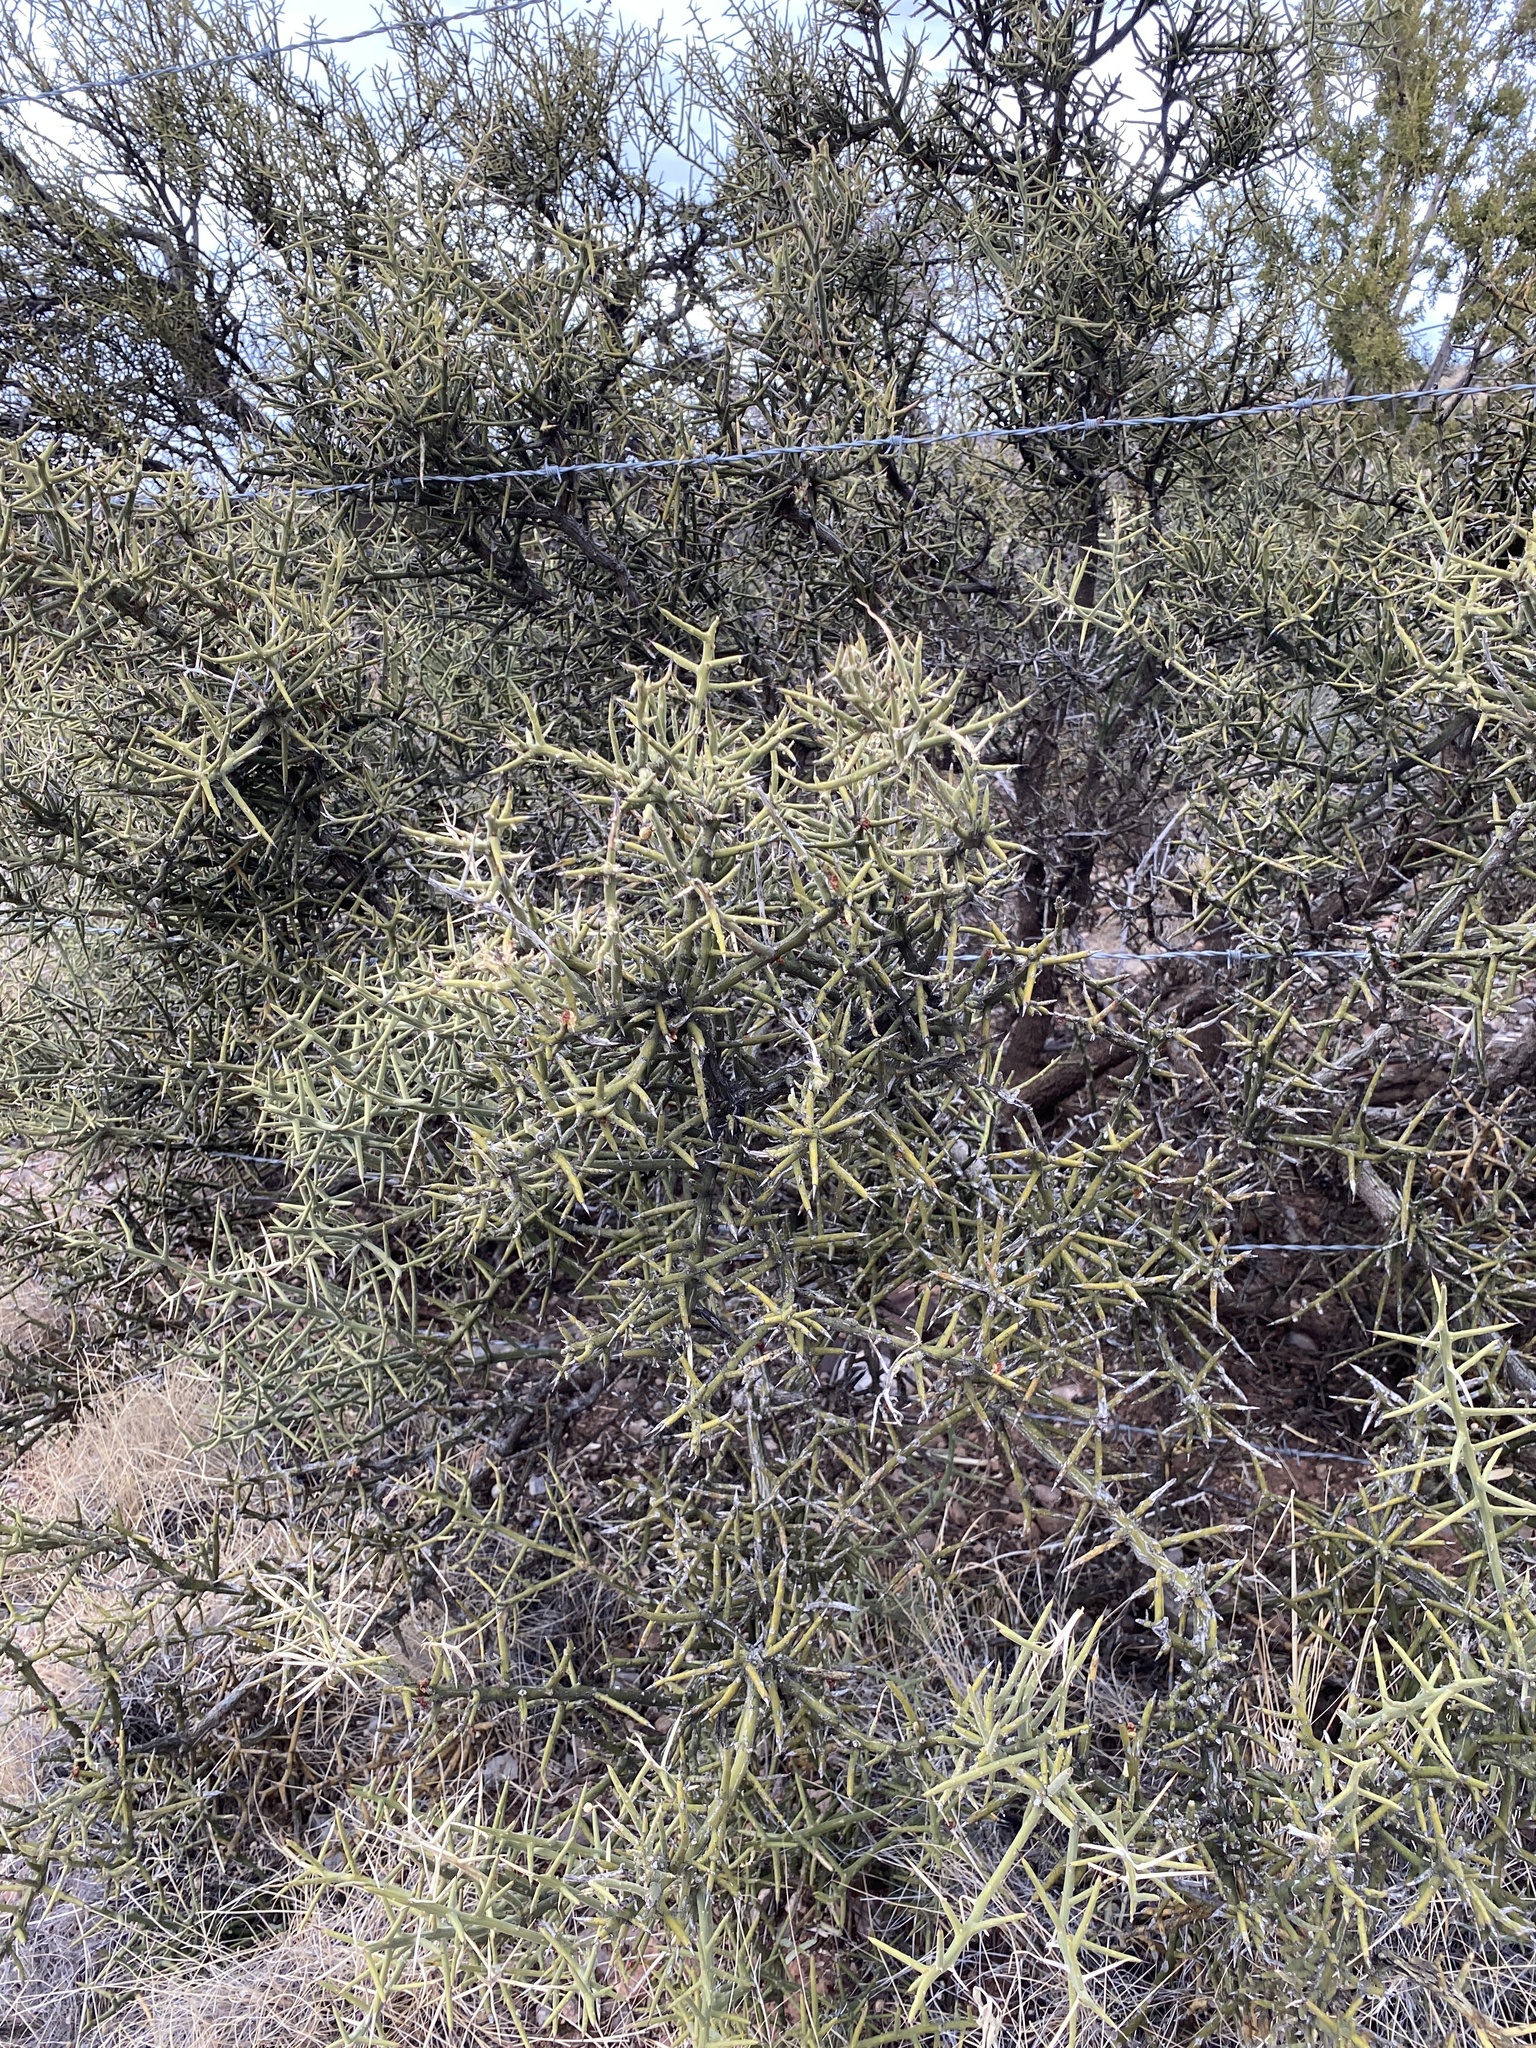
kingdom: Plantae
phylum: Tracheophyta
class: Magnoliopsida
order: Brassicales
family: Koeberliniaceae
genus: Koeberlinia
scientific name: Koeberlinia spinosa
